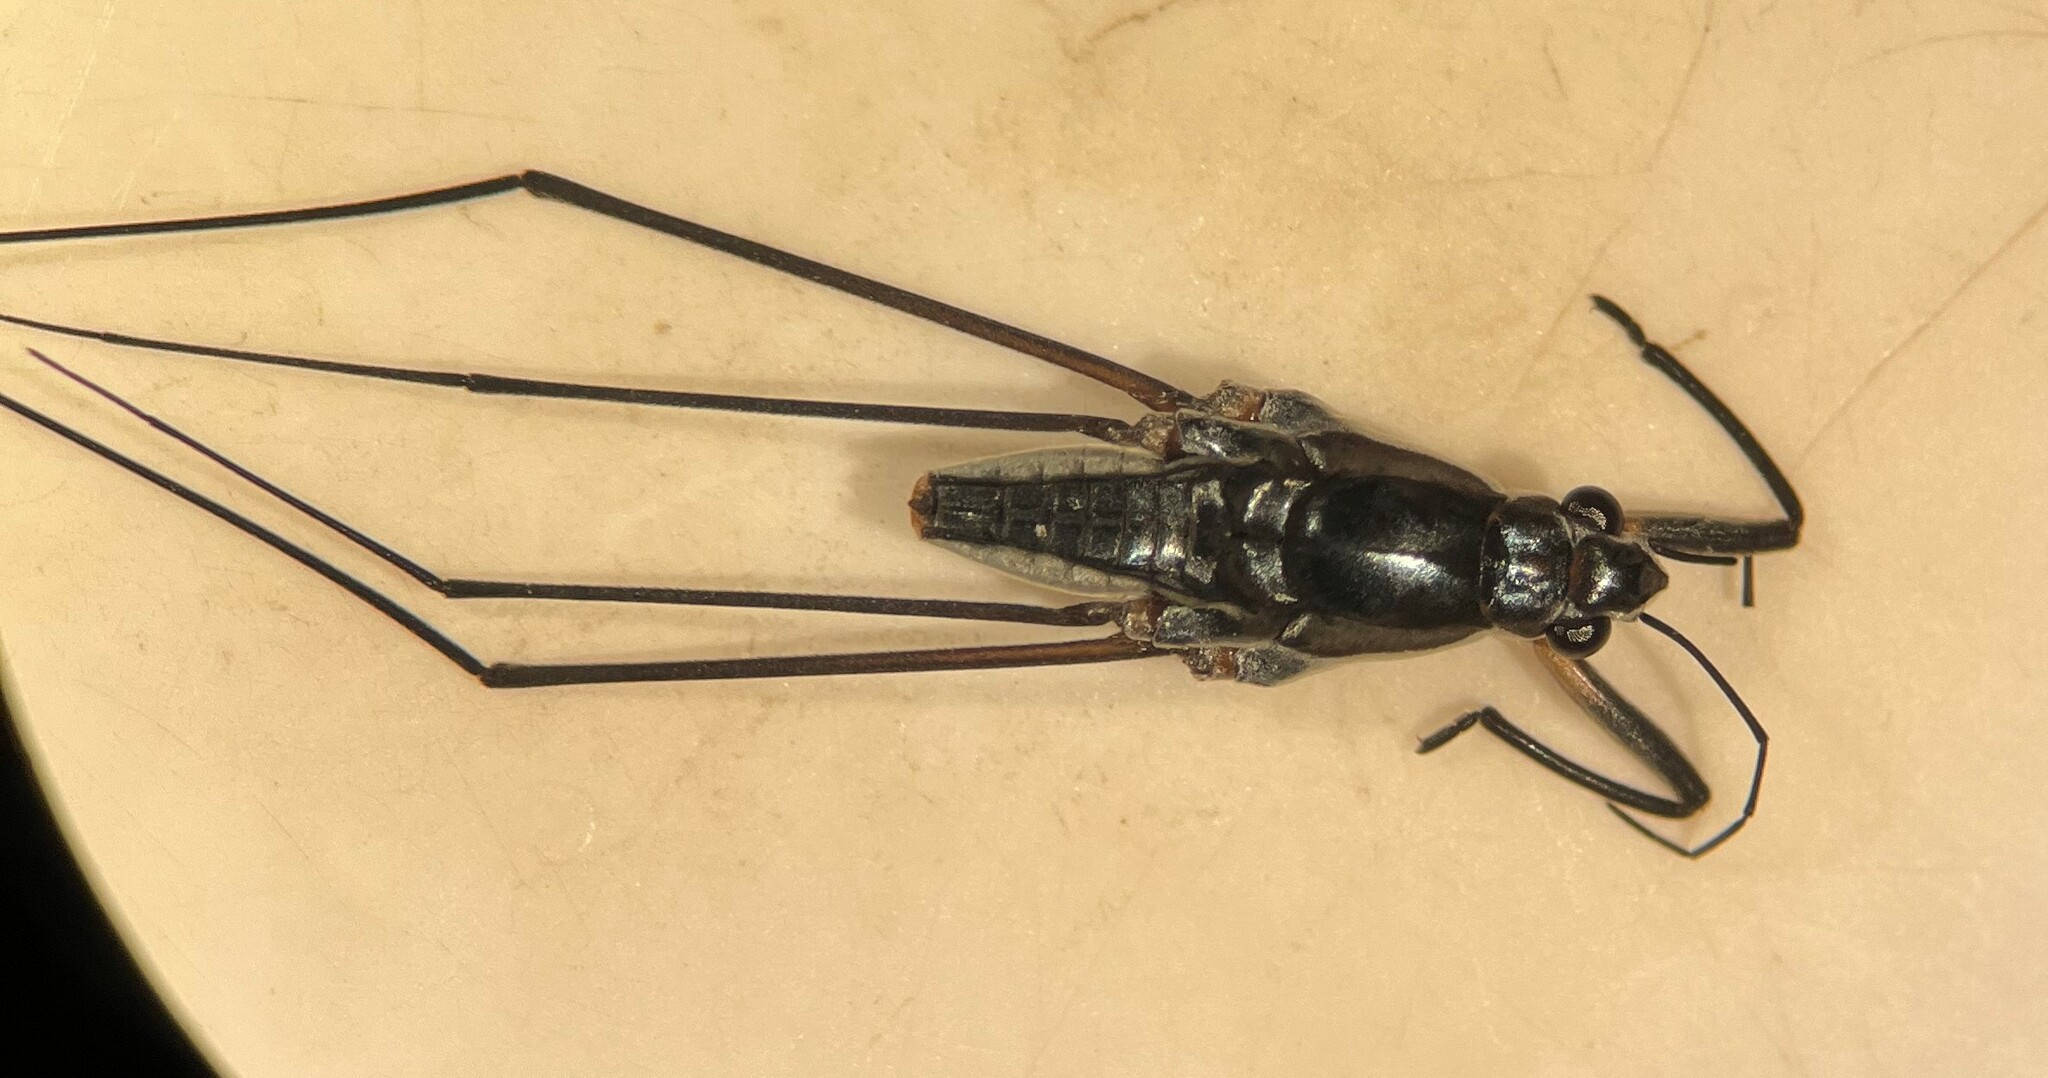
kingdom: Animalia
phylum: Arthropoda
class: Insecta
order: Hemiptera
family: Gerridae
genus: Neogerris
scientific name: Neogerris hesione
